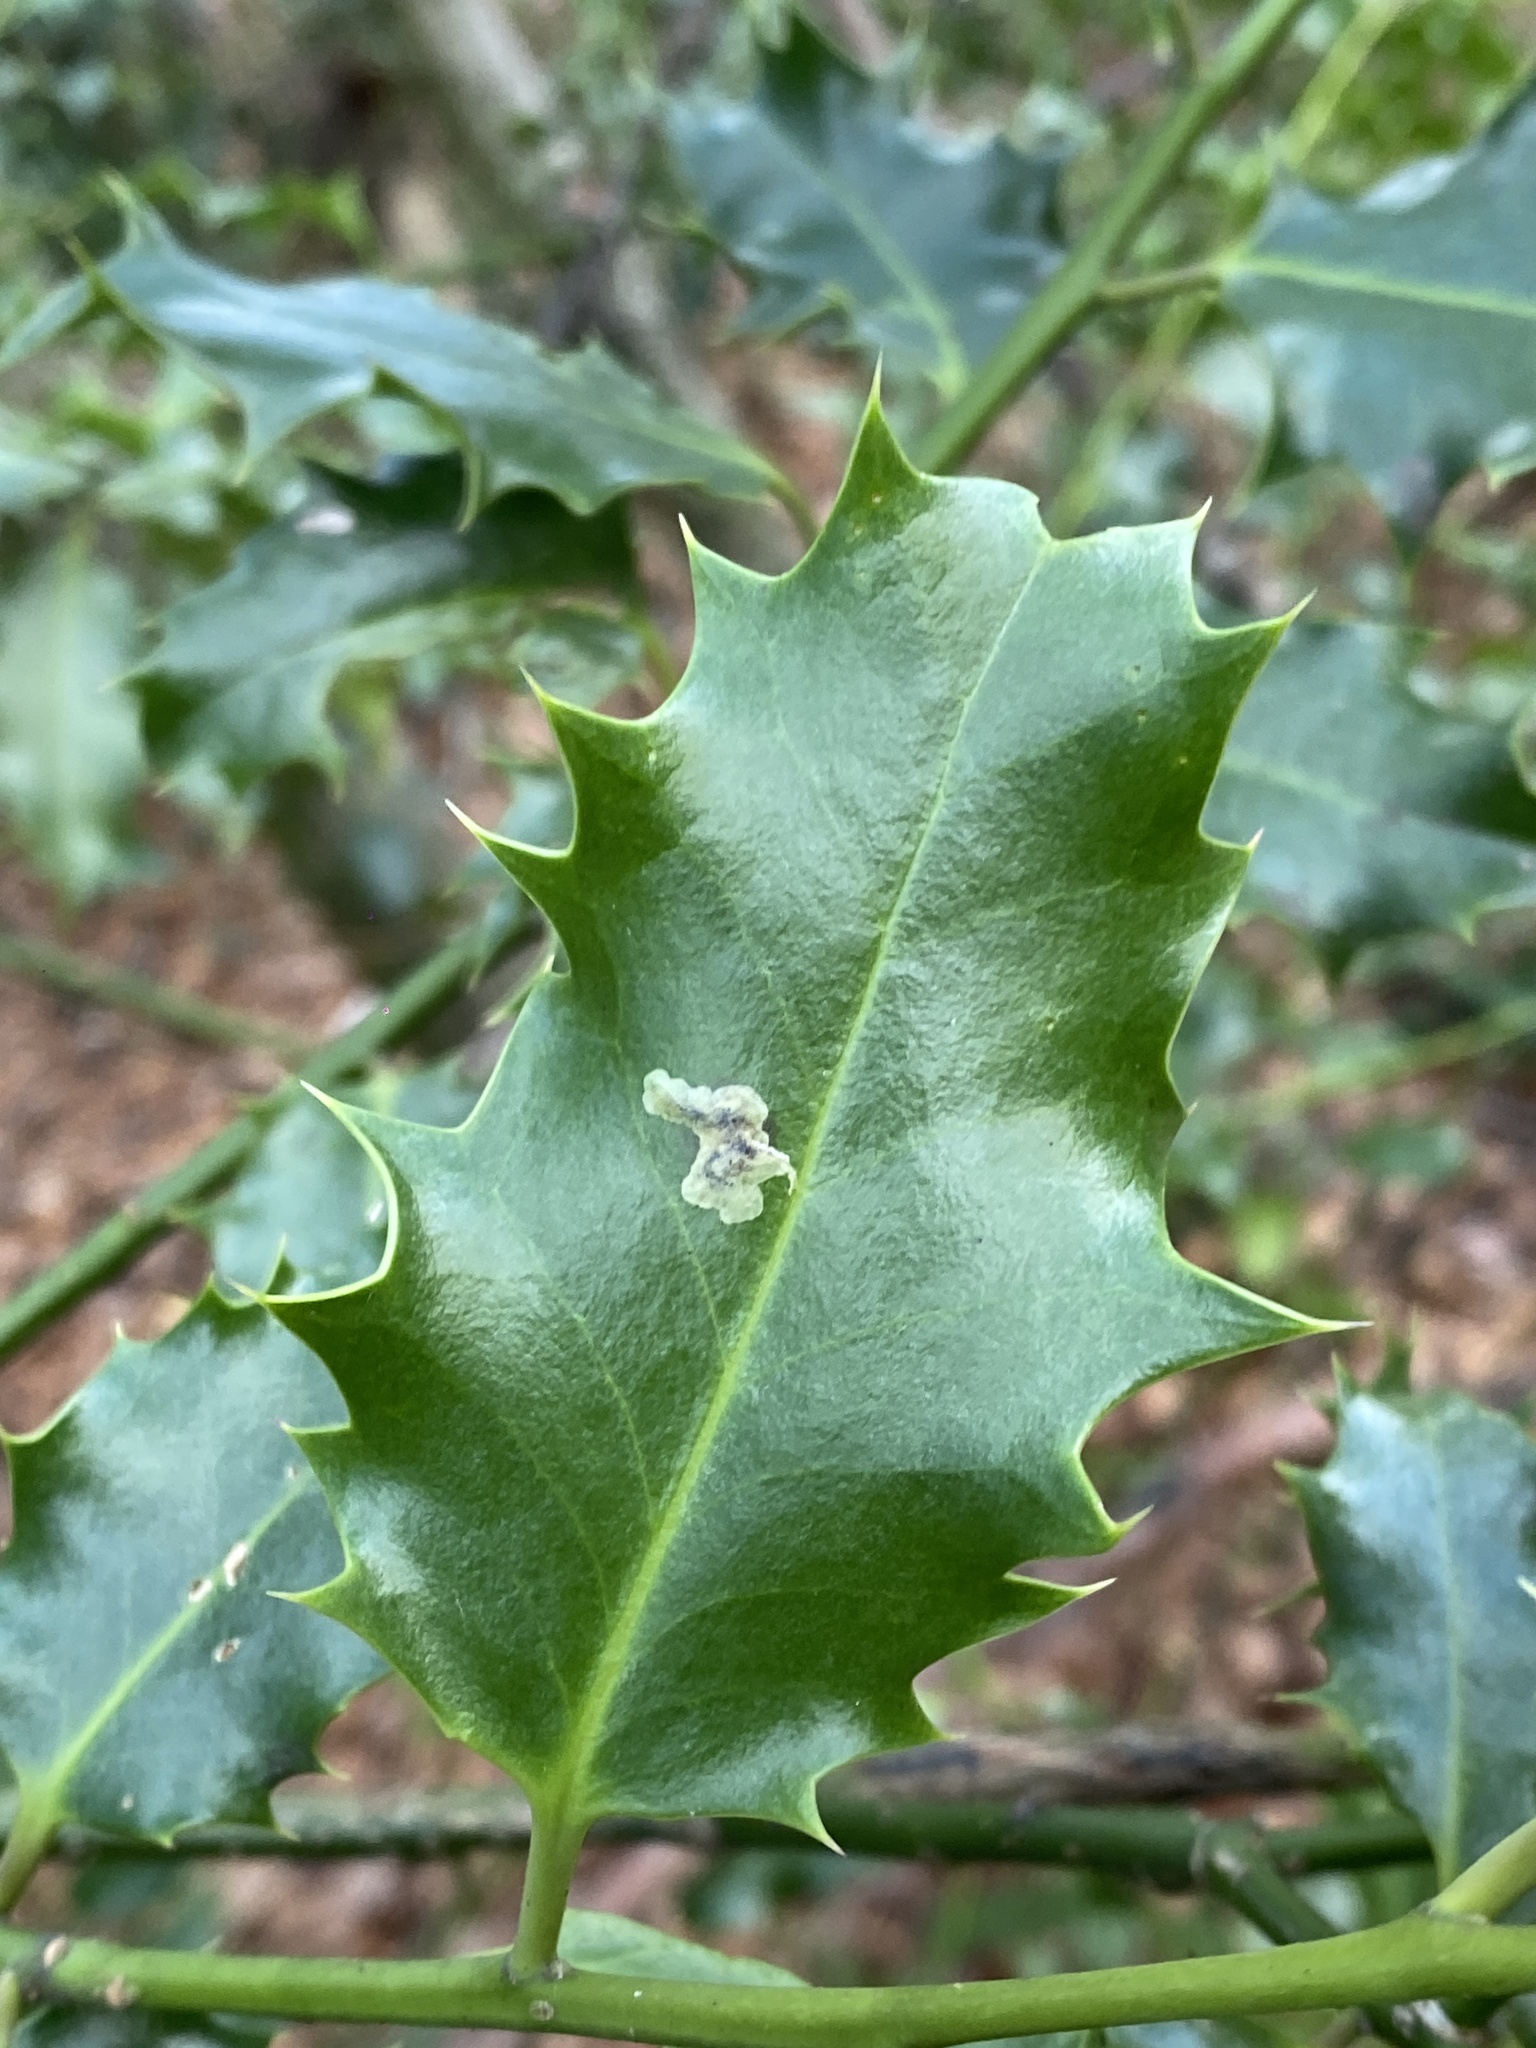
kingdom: Animalia
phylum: Arthropoda
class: Insecta
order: Diptera
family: Agromyzidae
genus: Phytomyza
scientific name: Phytomyza ilicis
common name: Holly leafminer
